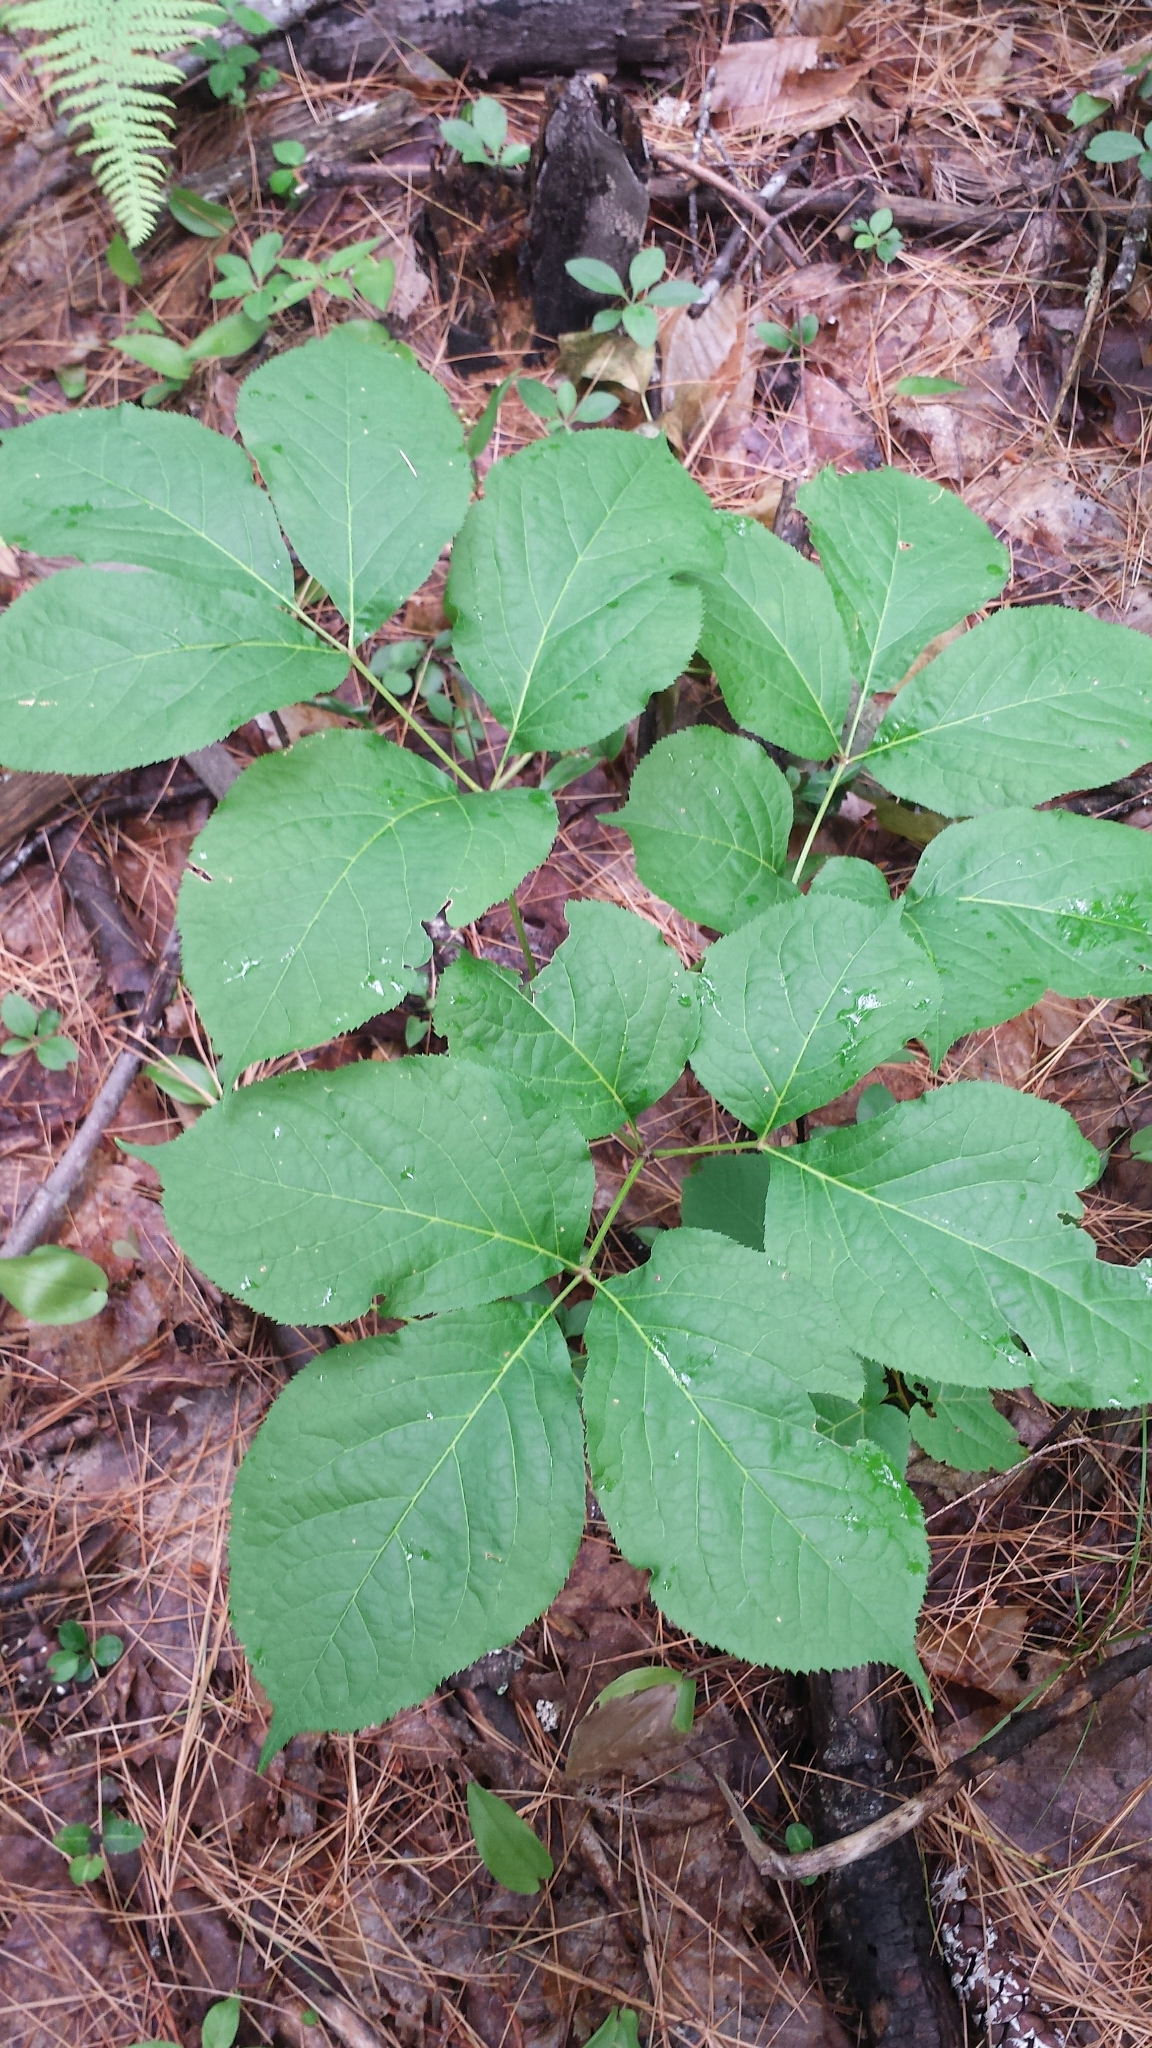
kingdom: Plantae
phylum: Tracheophyta
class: Magnoliopsida
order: Apiales
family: Araliaceae
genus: Aralia
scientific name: Aralia nudicaulis
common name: Wild sarsaparilla
